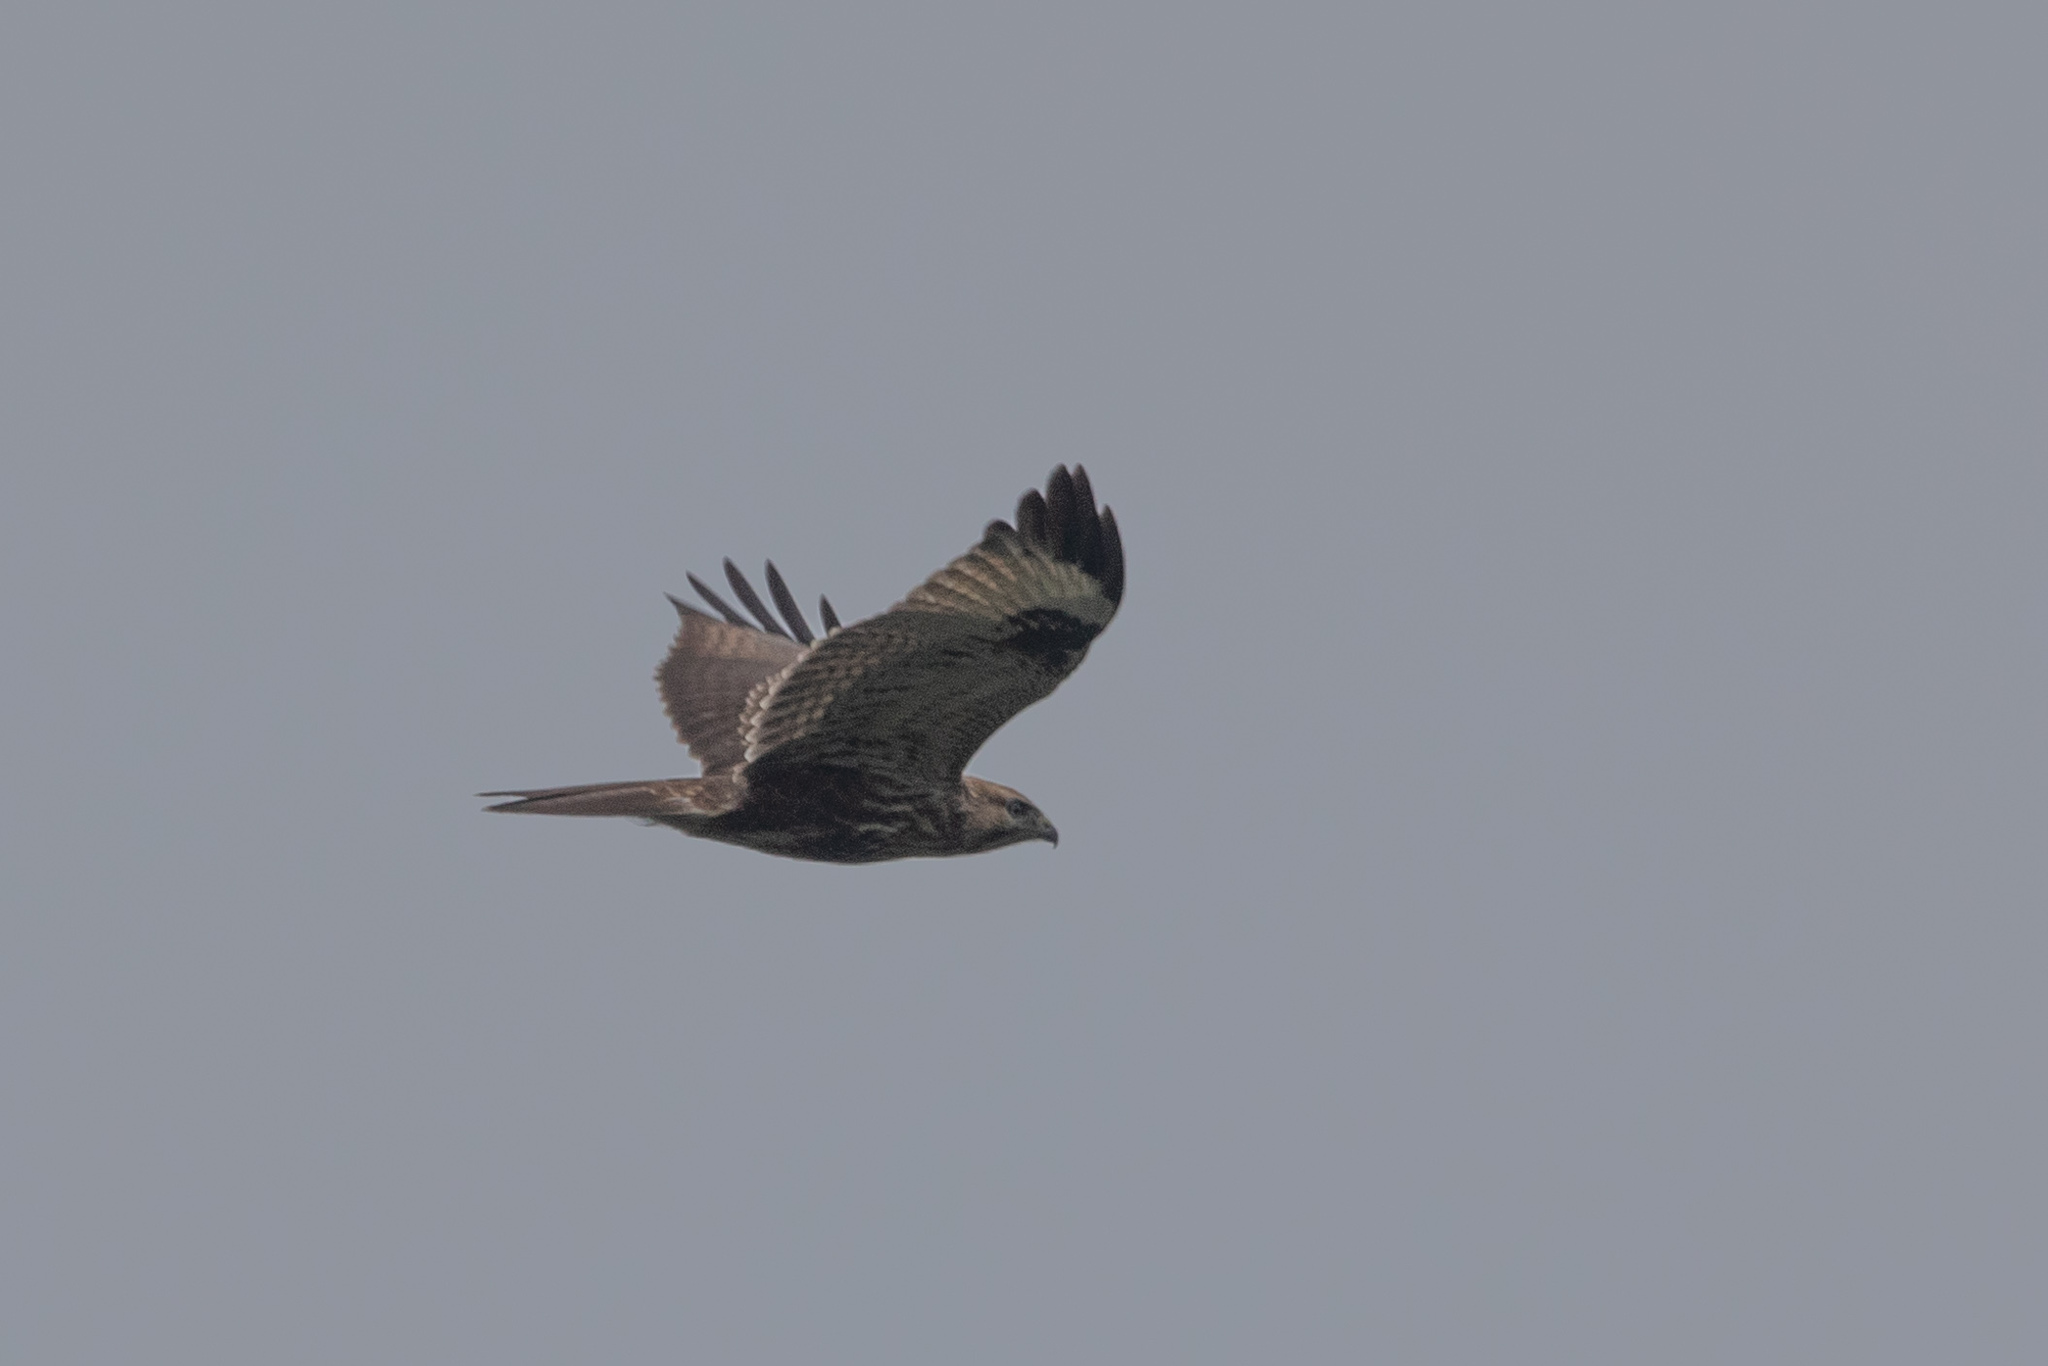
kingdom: Animalia
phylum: Chordata
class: Aves
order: Accipitriformes
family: Accipitridae
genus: Buteo
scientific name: Buteo japonicus
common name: Eastern buzzard
